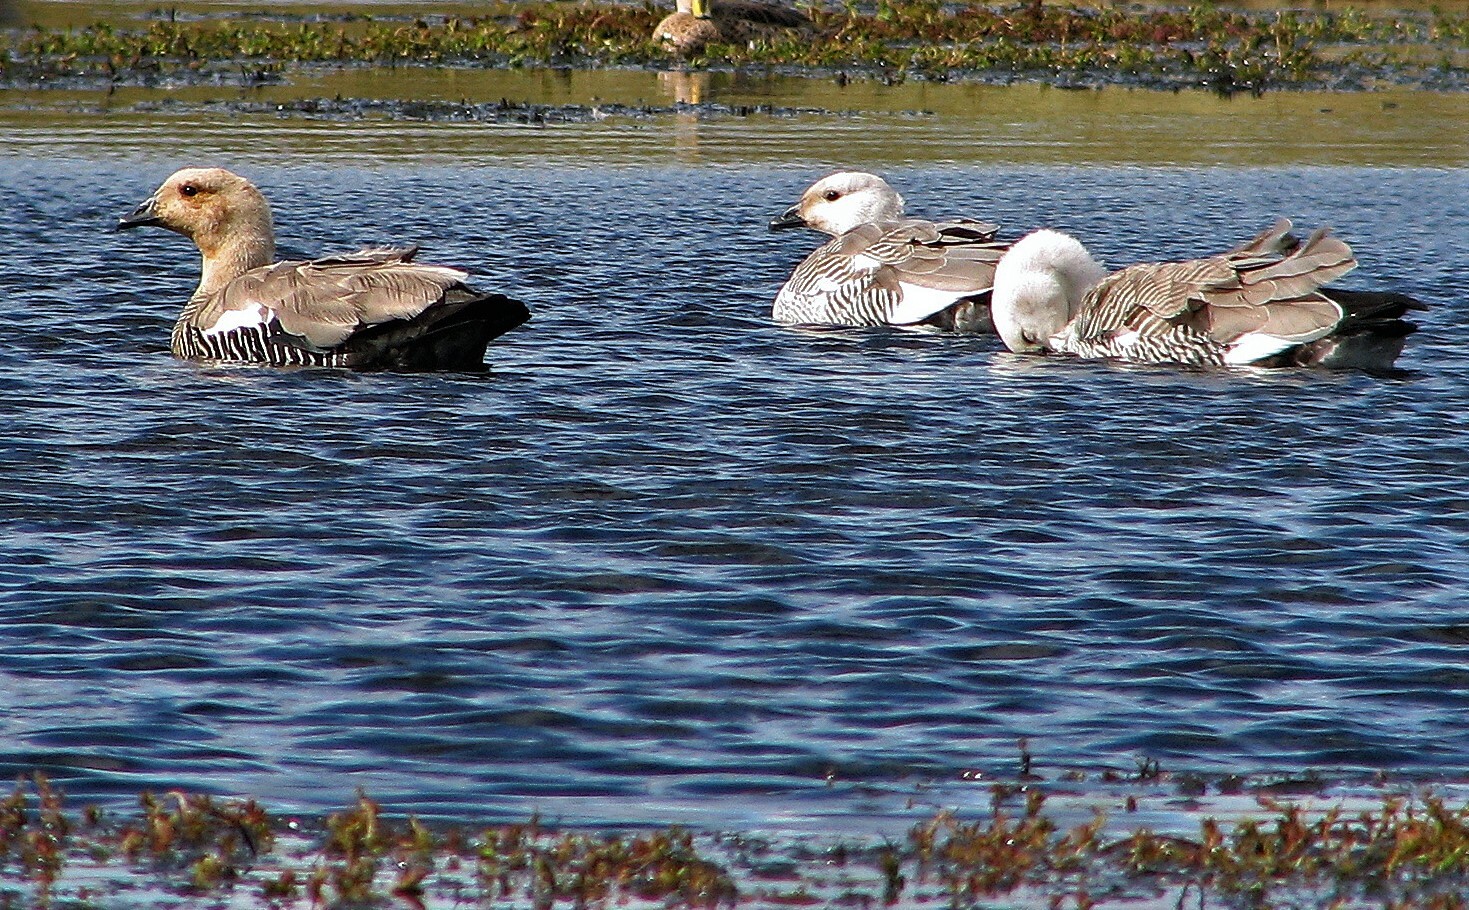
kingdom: Animalia
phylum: Chordata
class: Aves
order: Anseriformes
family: Anatidae
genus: Chloephaga
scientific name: Chloephaga picta
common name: Upland goose
